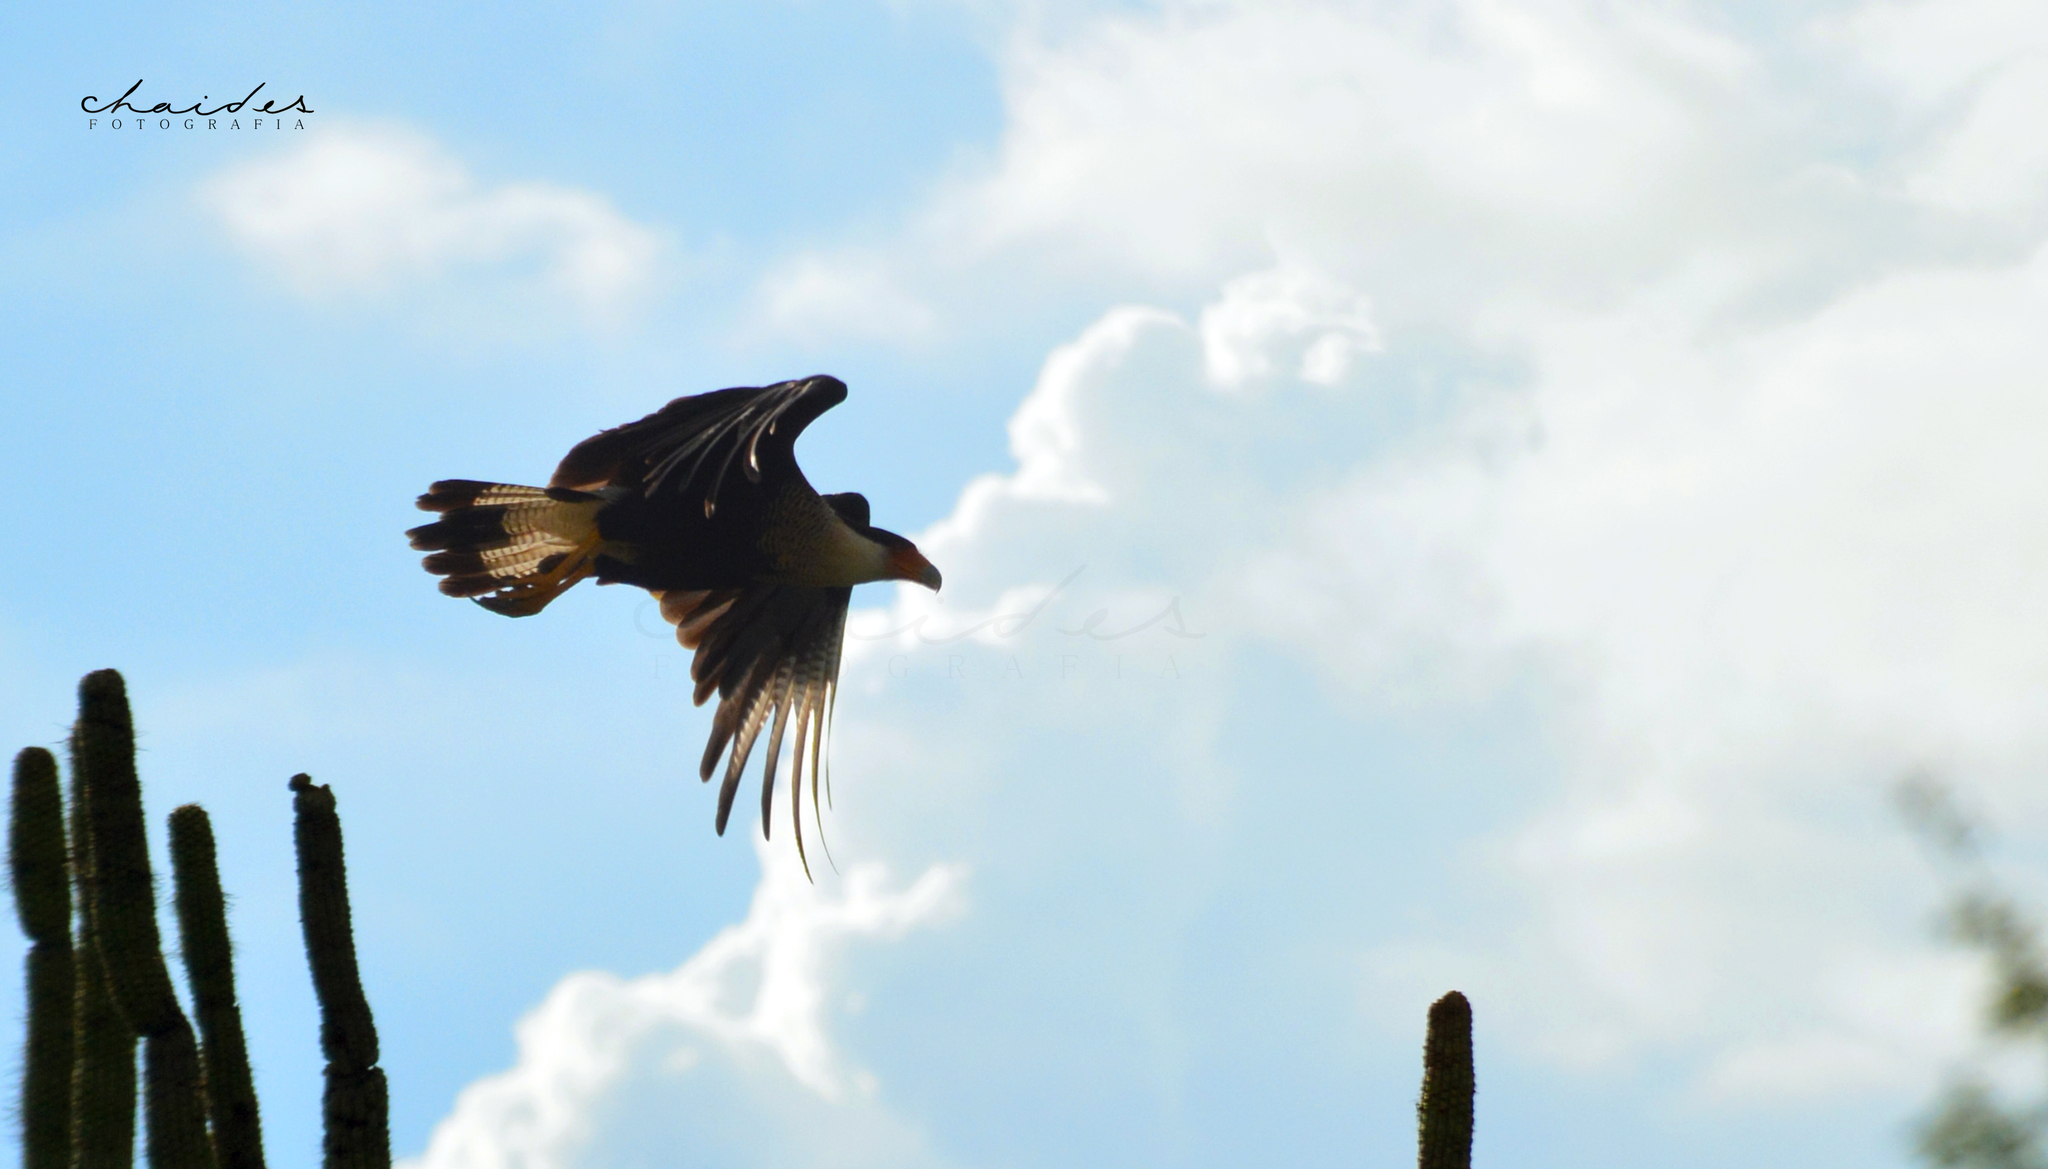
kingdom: Animalia
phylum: Chordata
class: Aves
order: Falconiformes
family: Falconidae
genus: Caracara
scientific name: Caracara plancus
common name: Southern caracara
